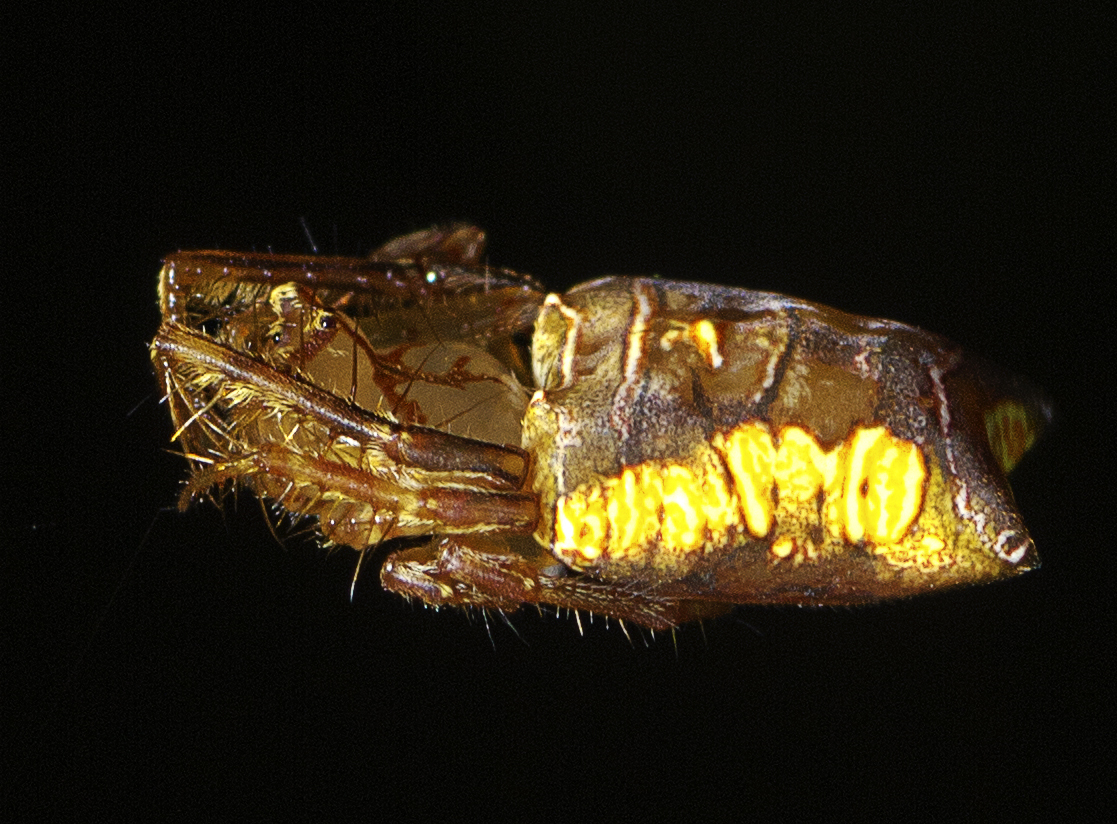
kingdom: Animalia
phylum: Arthropoda
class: Arachnida
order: Araneae
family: Arkyidae
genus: Arkys
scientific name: Arkys furcatus
